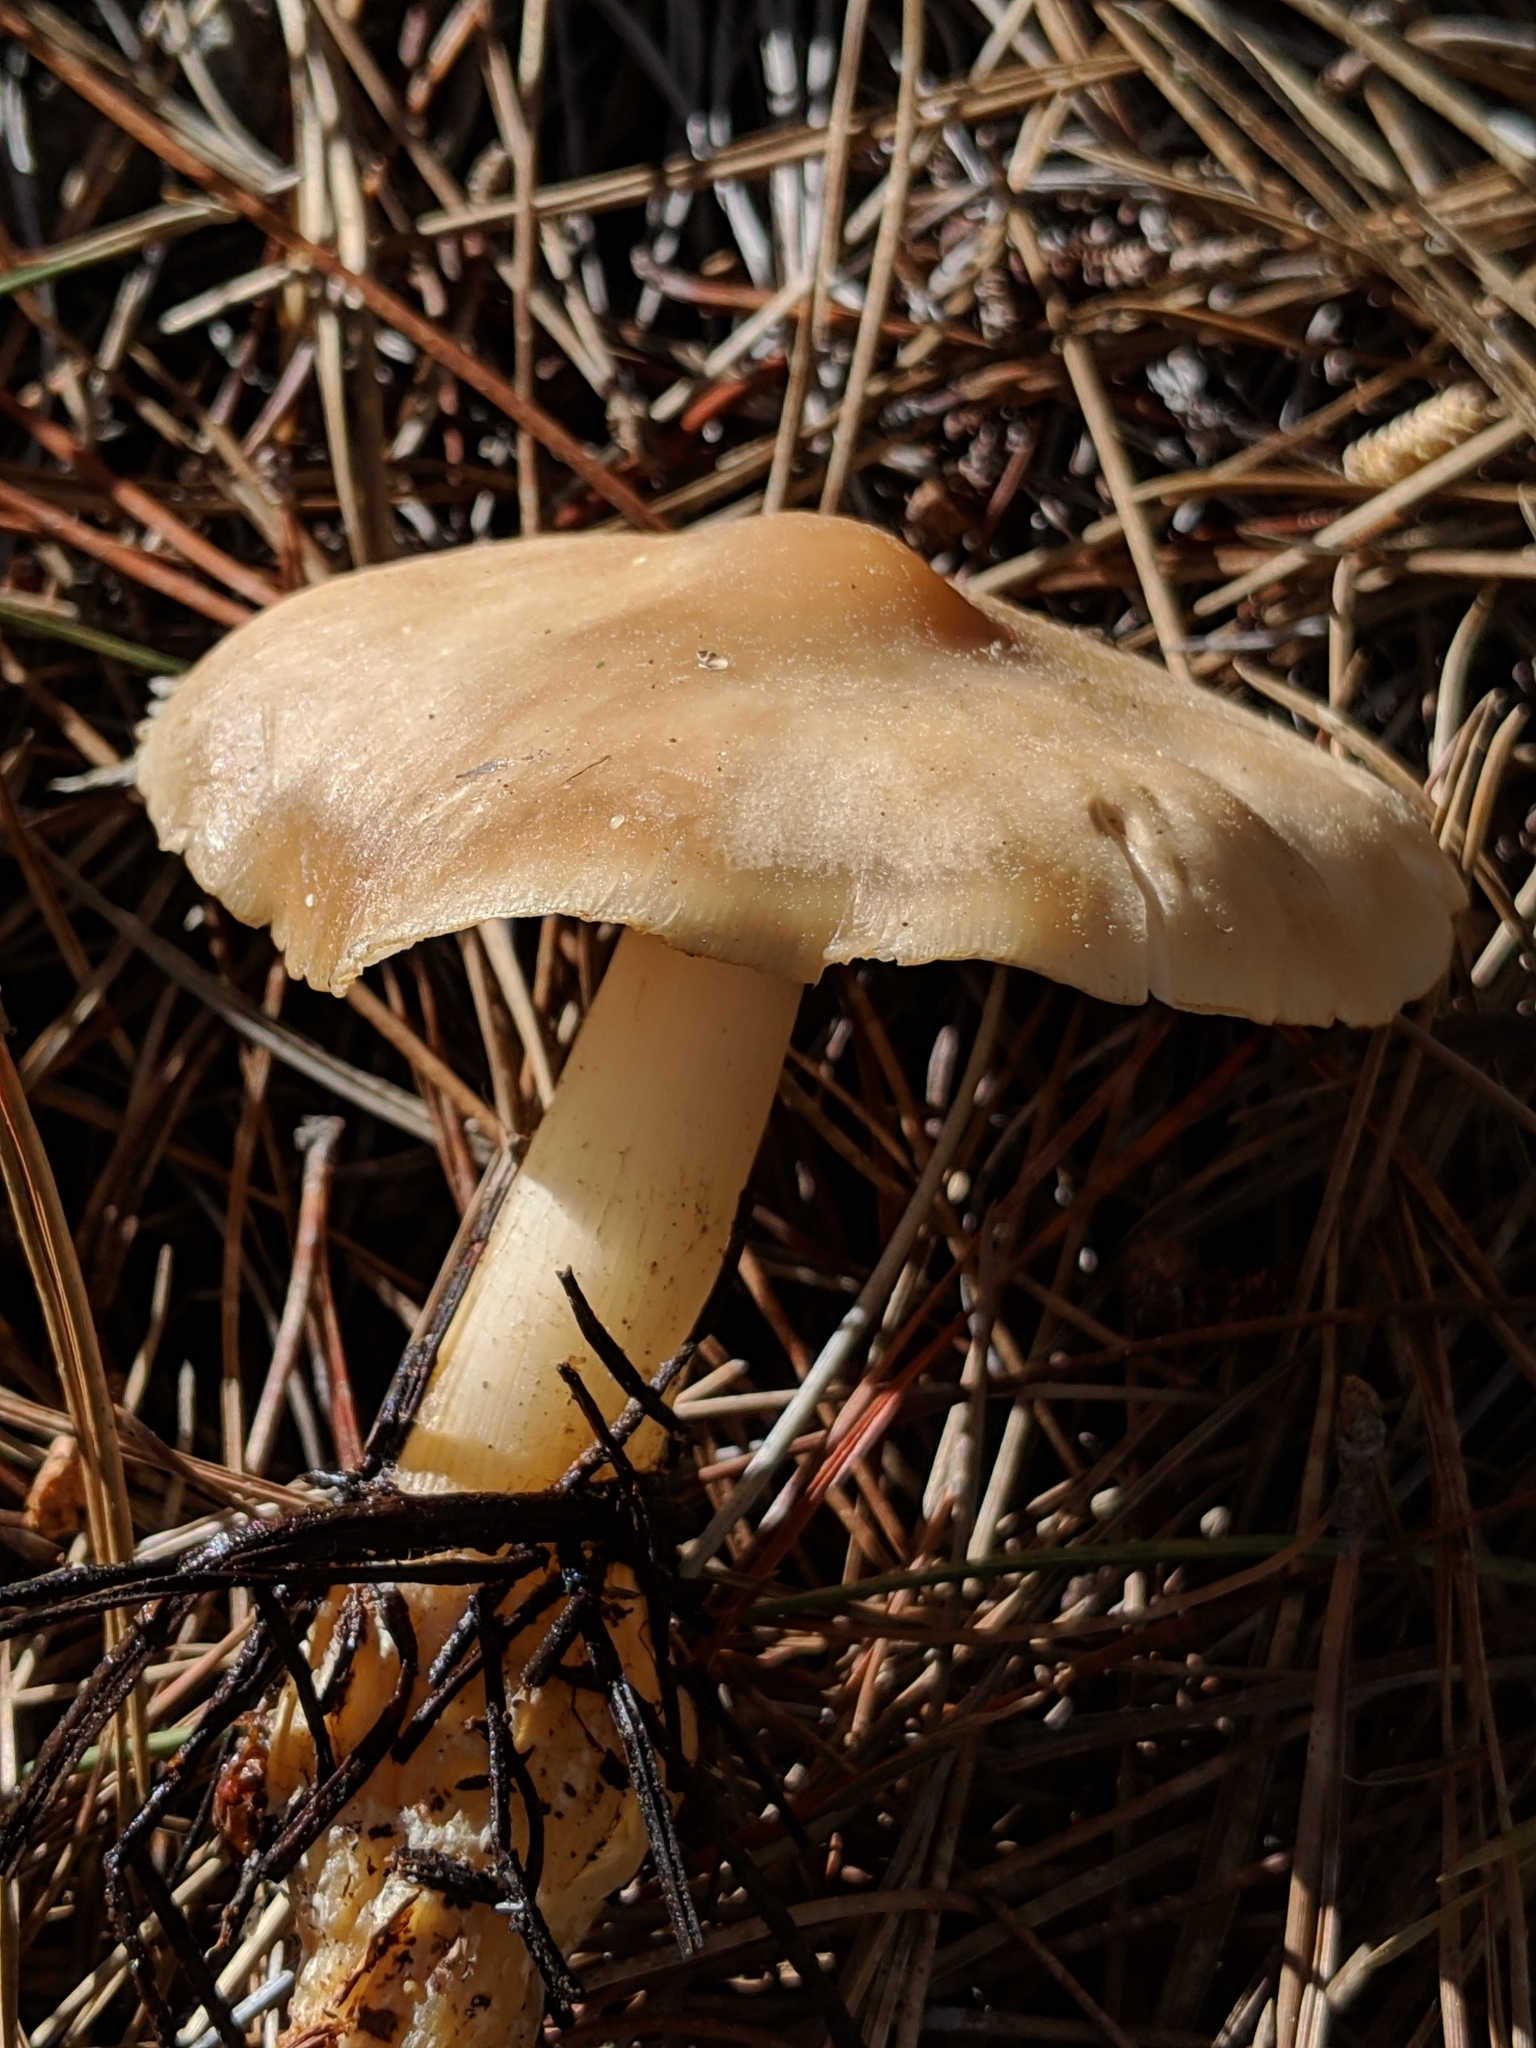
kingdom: Fungi
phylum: Basidiomycota
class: Agaricomycetes
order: Agaricales
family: Omphalotaceae
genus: Rhodocollybia
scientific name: Rhodocollybia butyracea
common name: Butter cap
